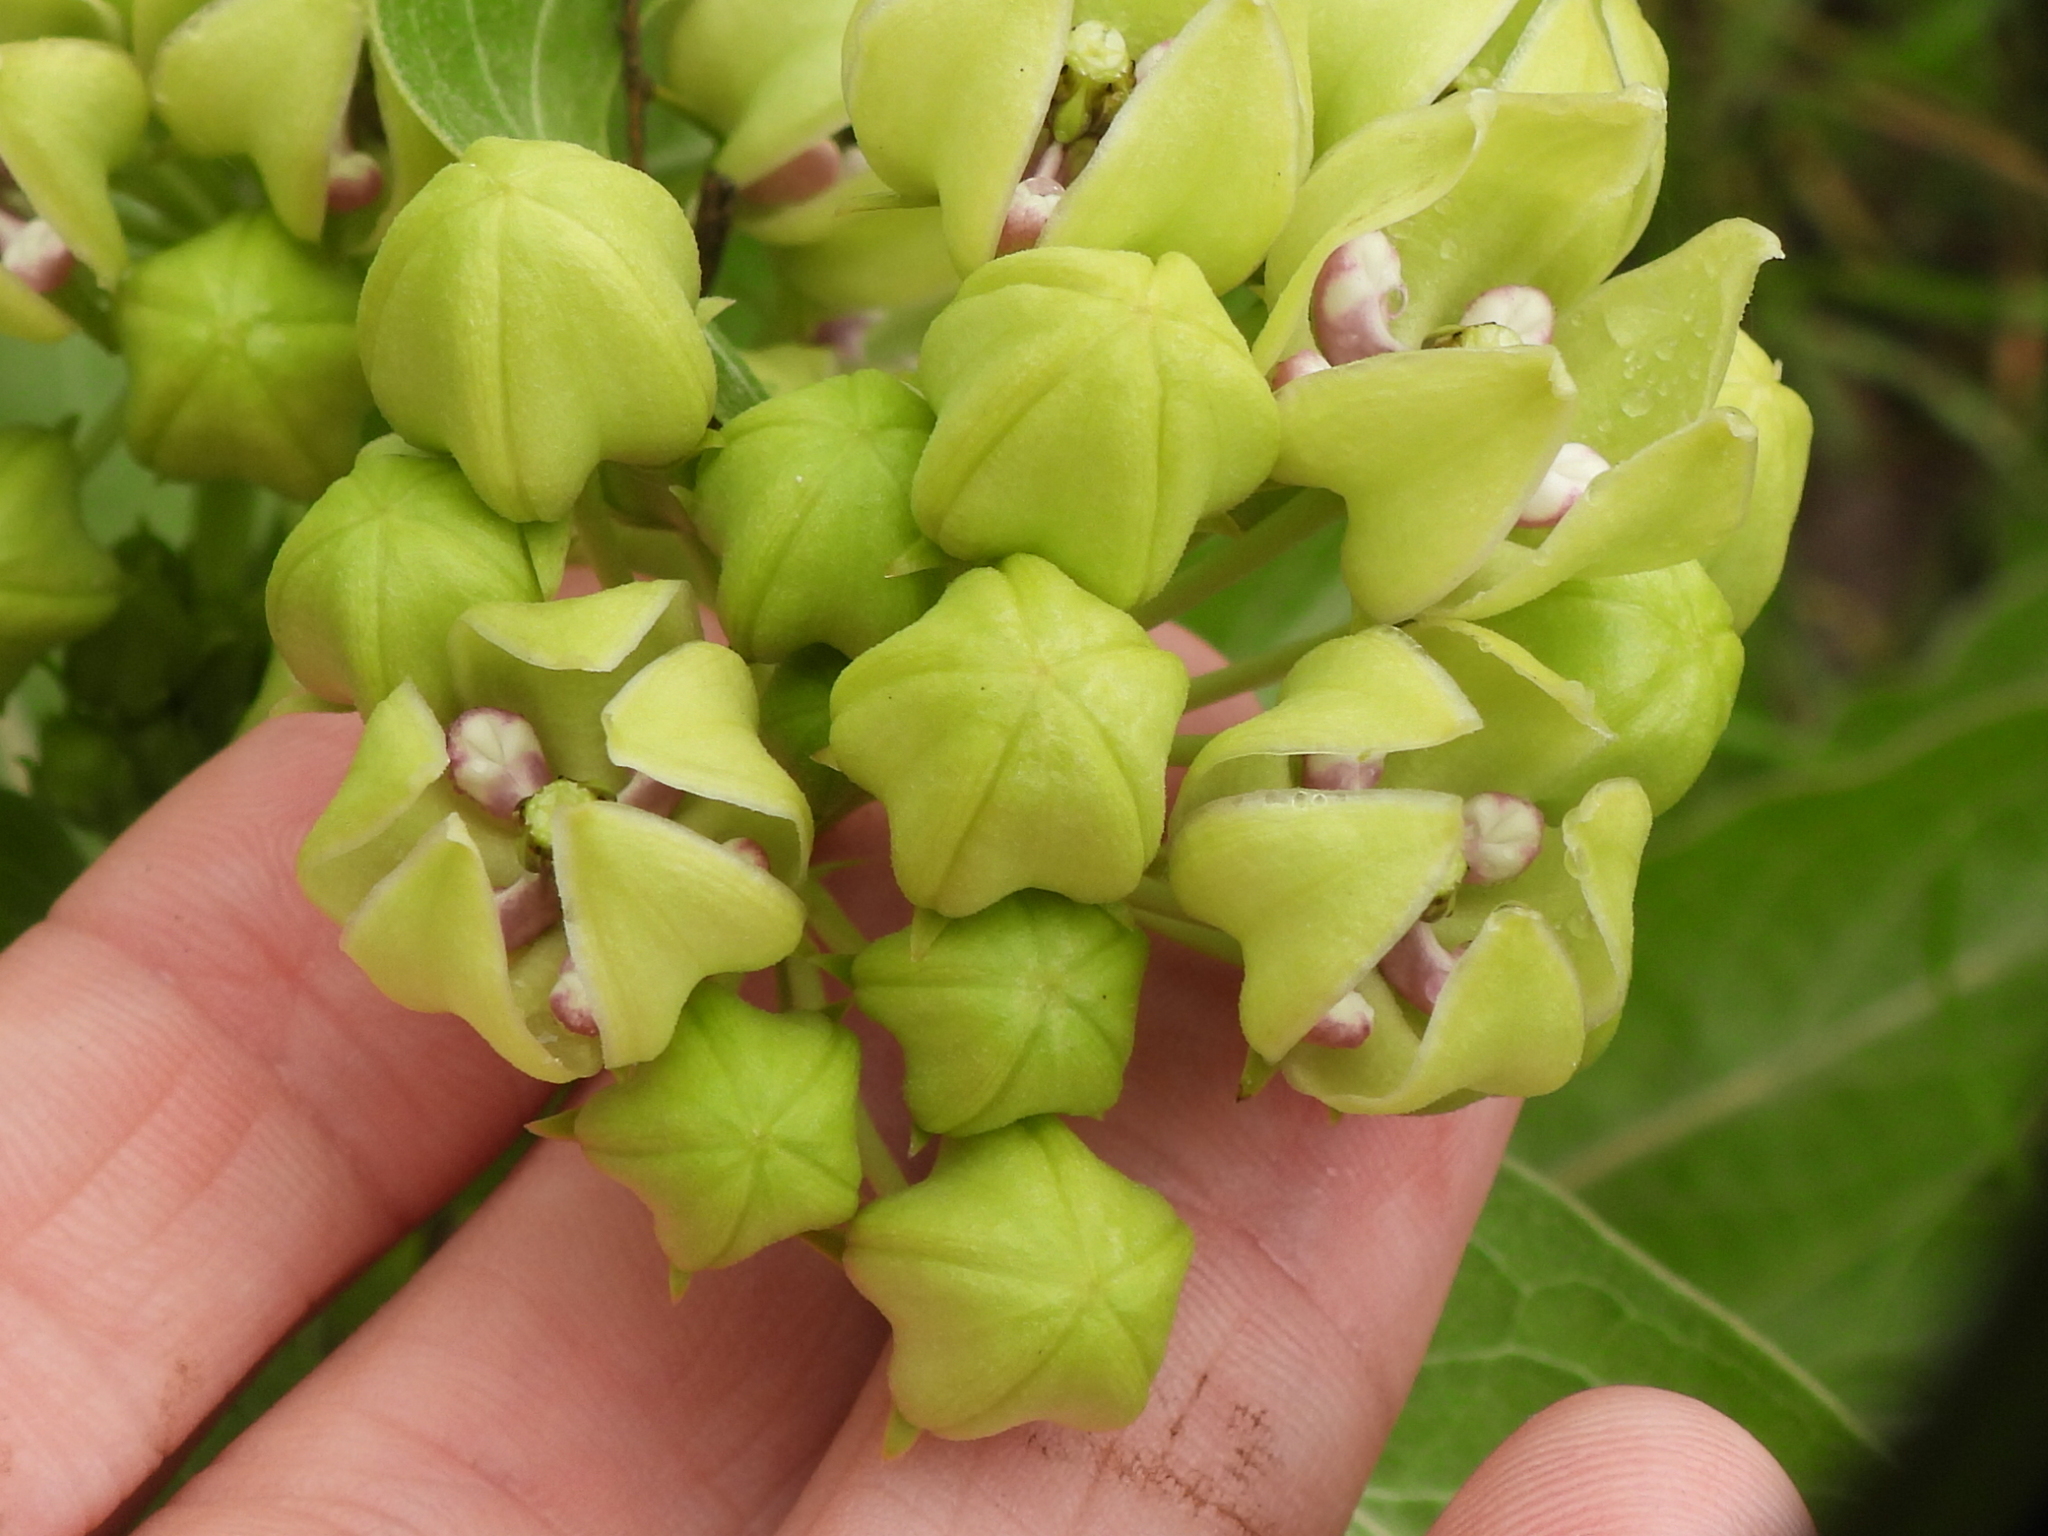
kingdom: Plantae
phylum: Tracheophyta
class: Magnoliopsida
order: Gentianales
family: Apocynaceae
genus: Asclepias
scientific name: Asclepias viridis
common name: Antelope-horns
